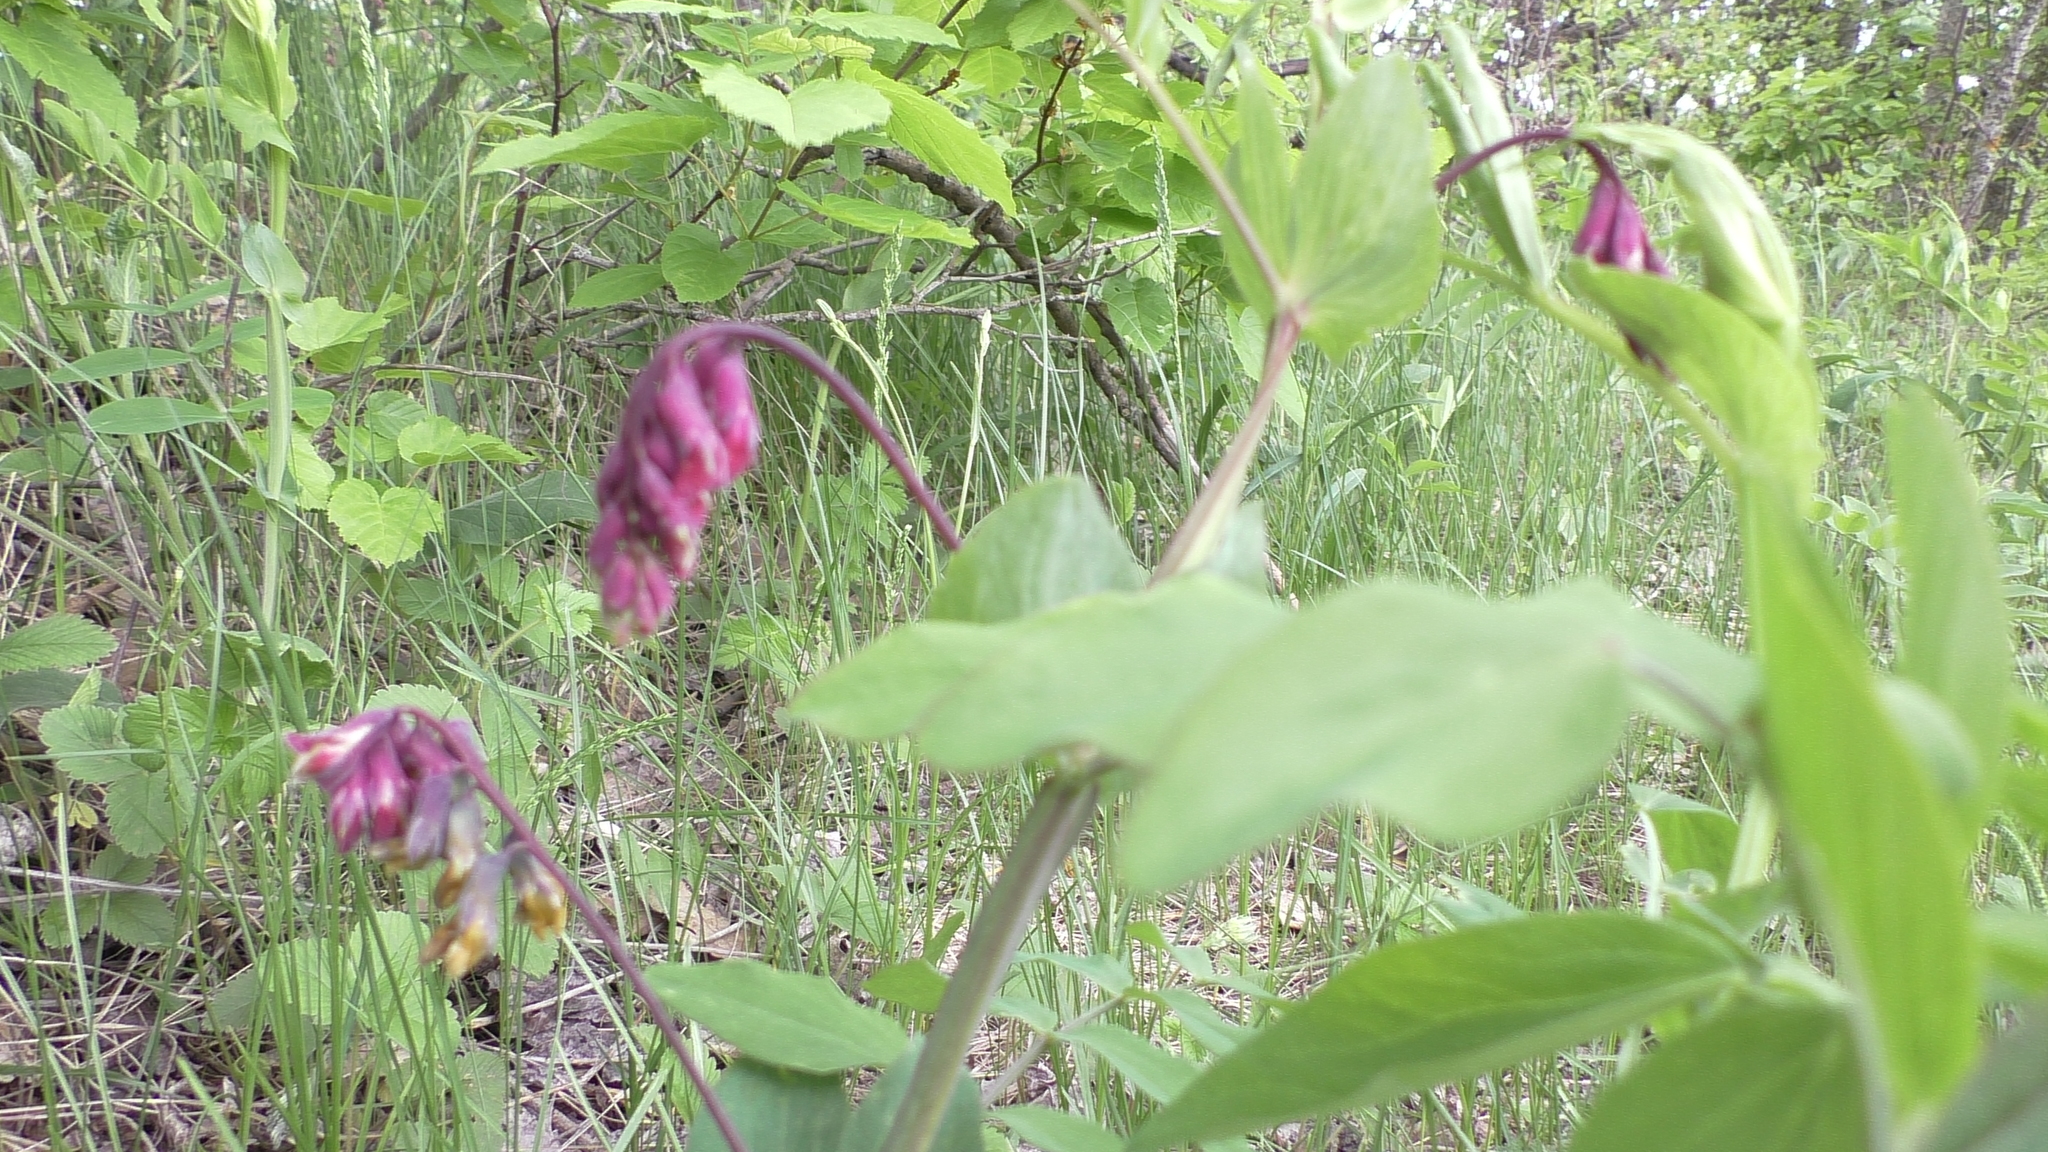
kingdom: Plantae
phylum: Tracheophyta
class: Magnoliopsida
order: Fabales
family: Fabaceae
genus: Lathyrus
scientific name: Lathyrus pisiformis
